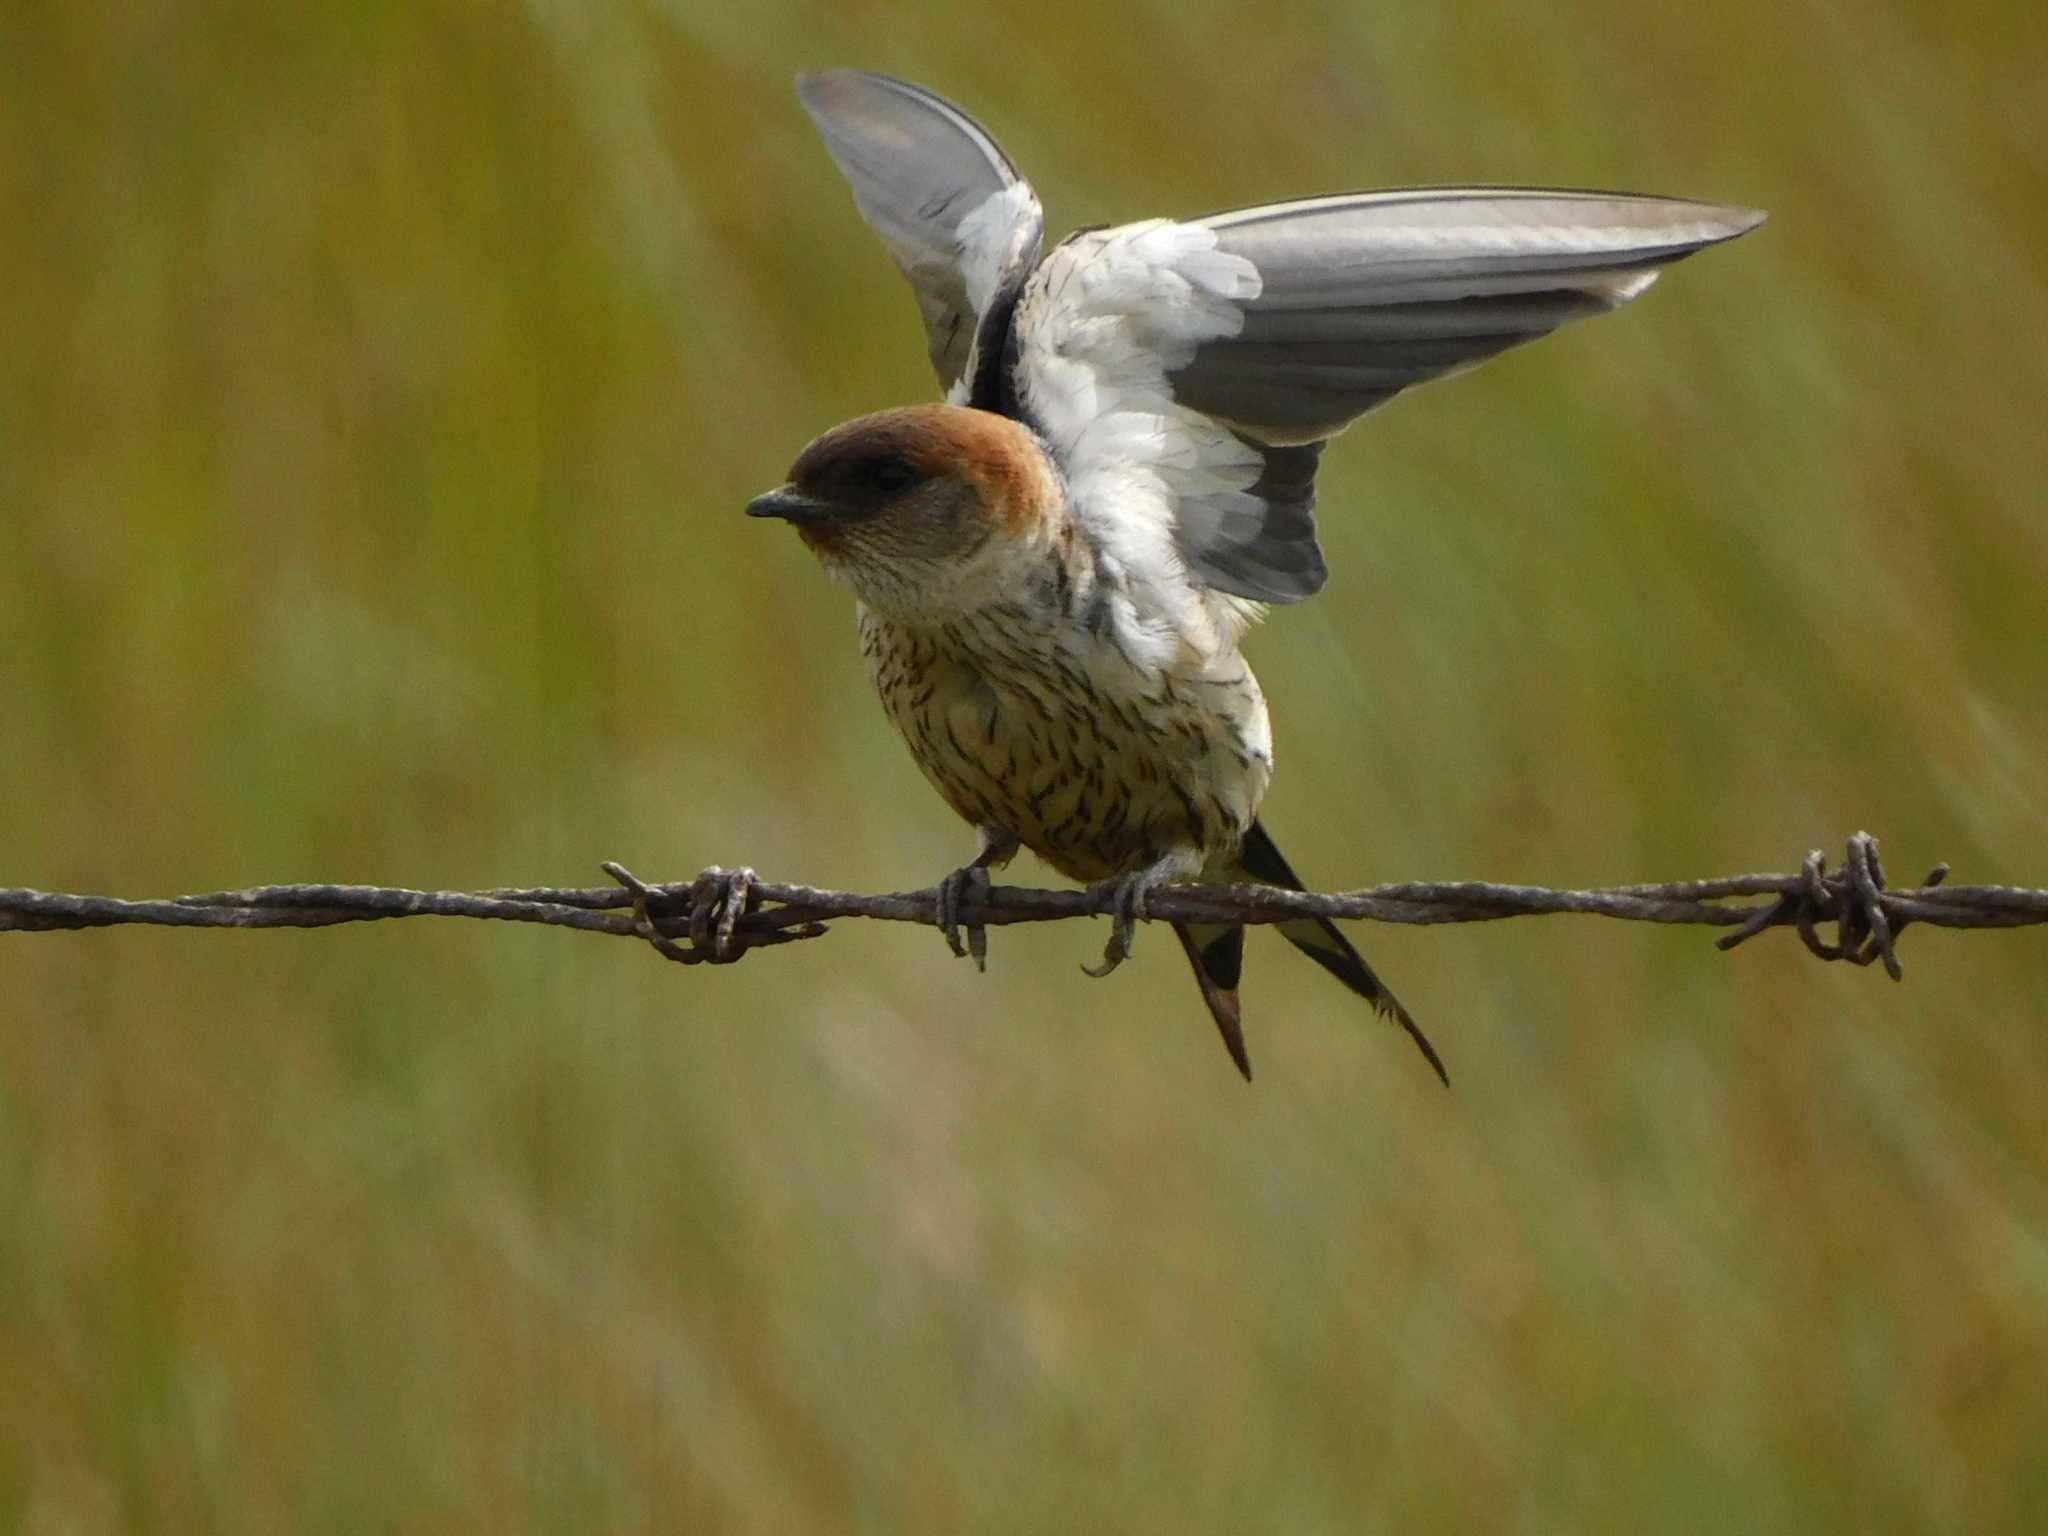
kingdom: Animalia
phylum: Chordata
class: Aves
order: Passeriformes
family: Hirundinidae
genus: Cecropis
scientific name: Cecropis cucullata
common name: Greater striped-swallow
